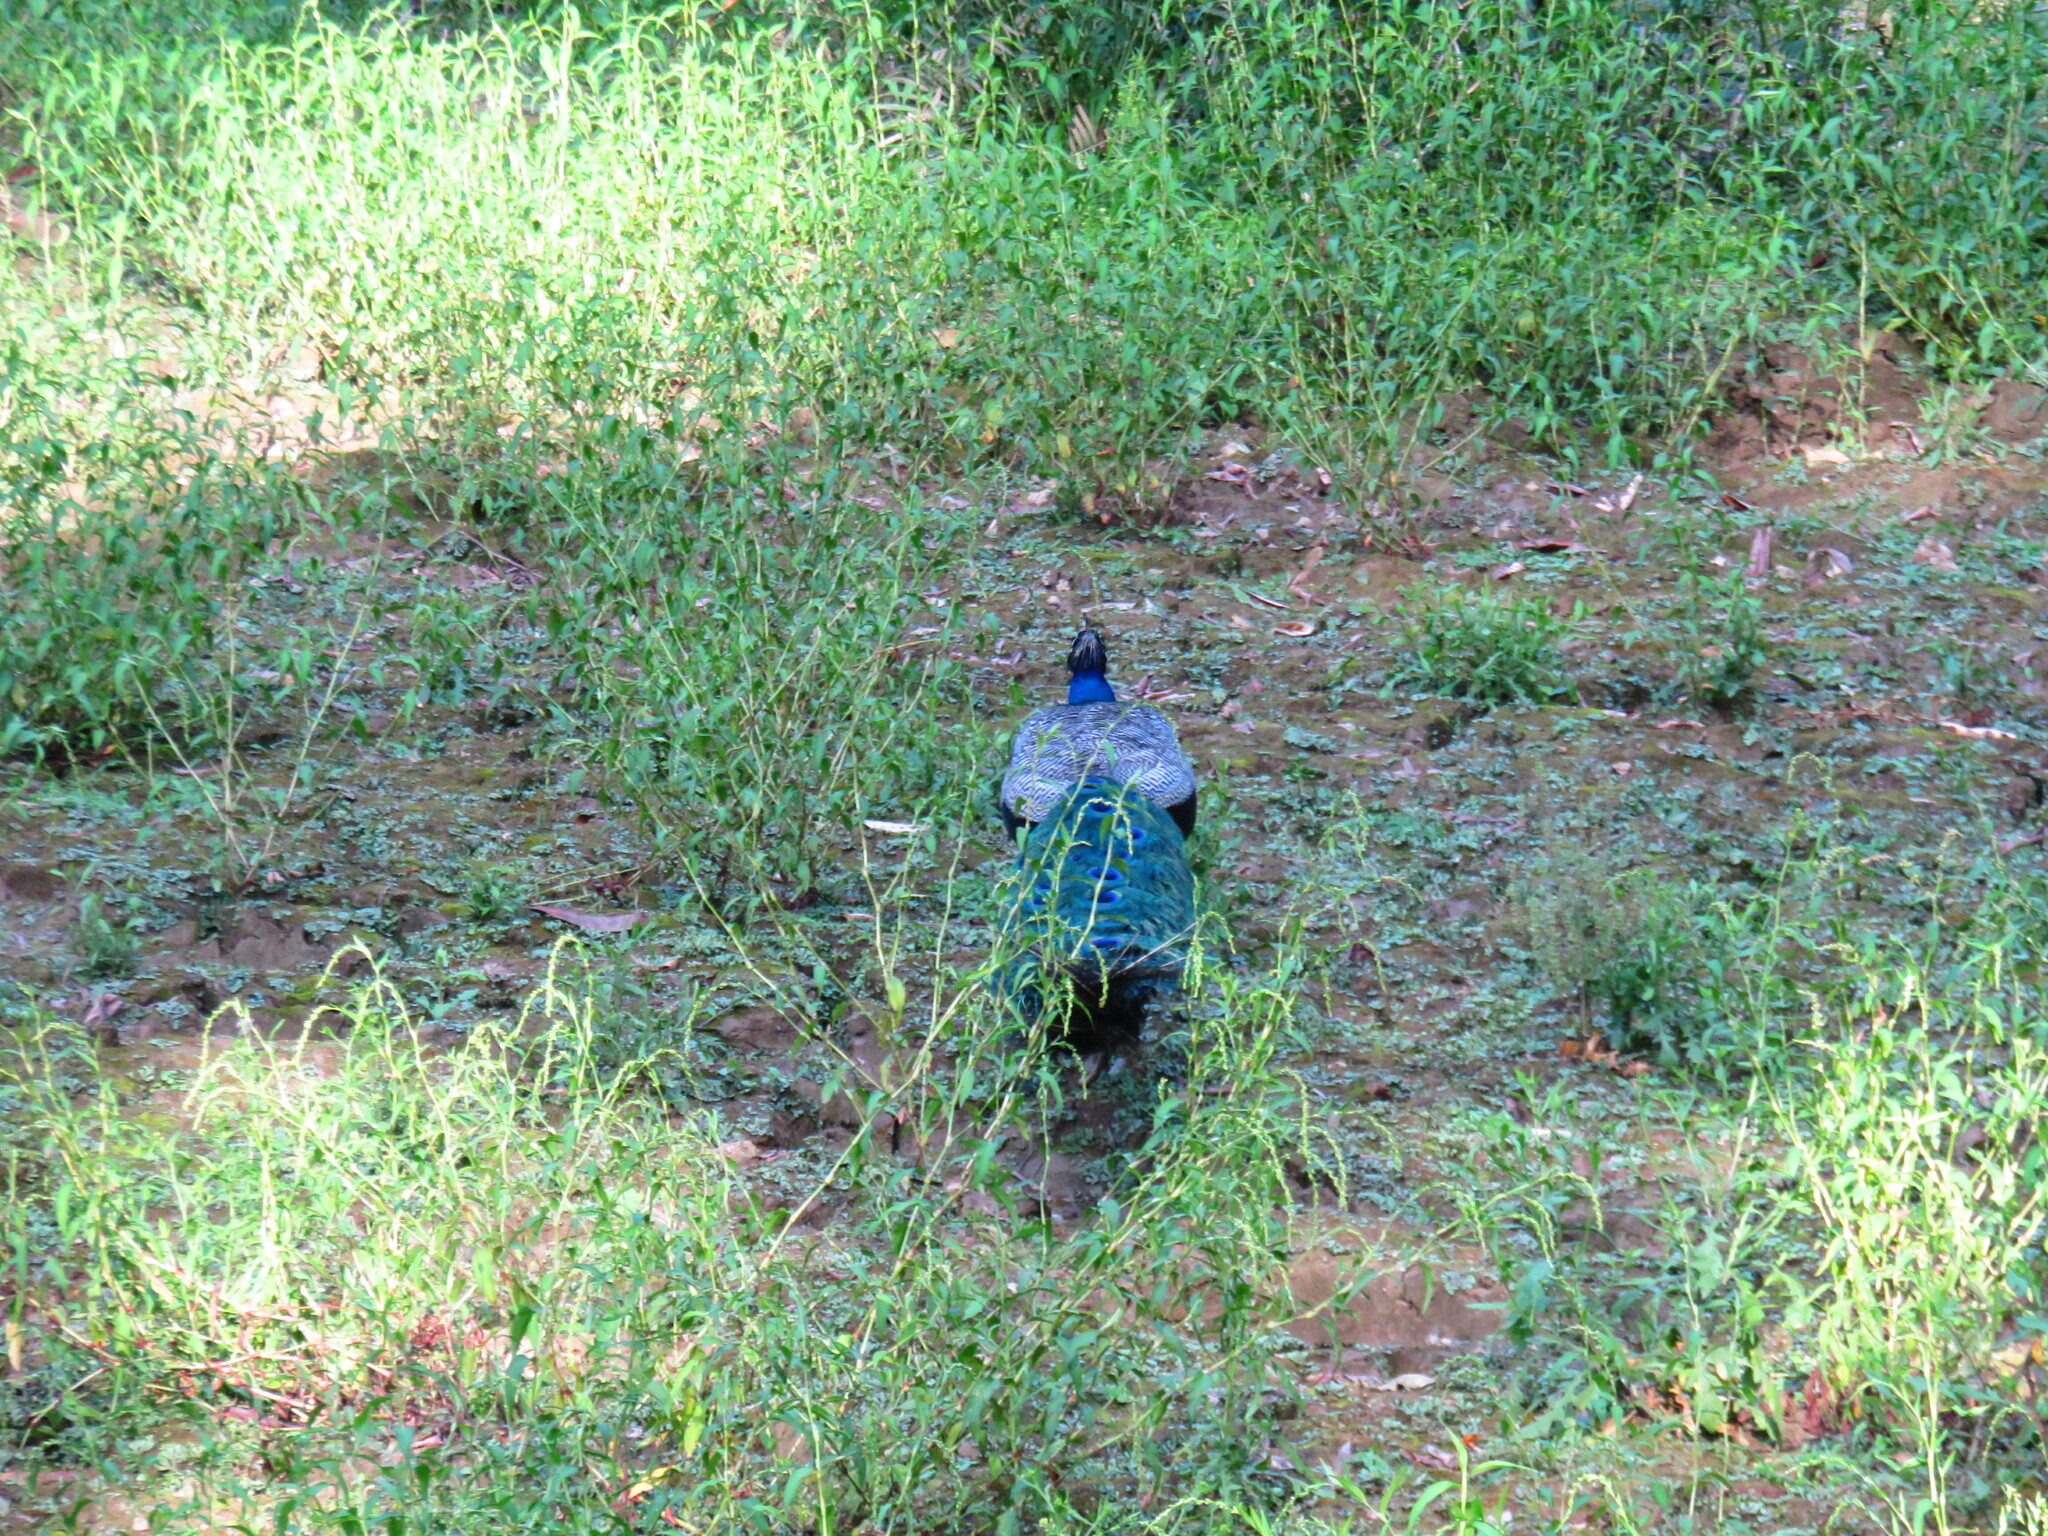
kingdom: Animalia
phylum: Chordata
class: Aves
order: Galliformes
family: Phasianidae
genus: Pavo
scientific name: Pavo cristatus
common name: Indian peafowl
